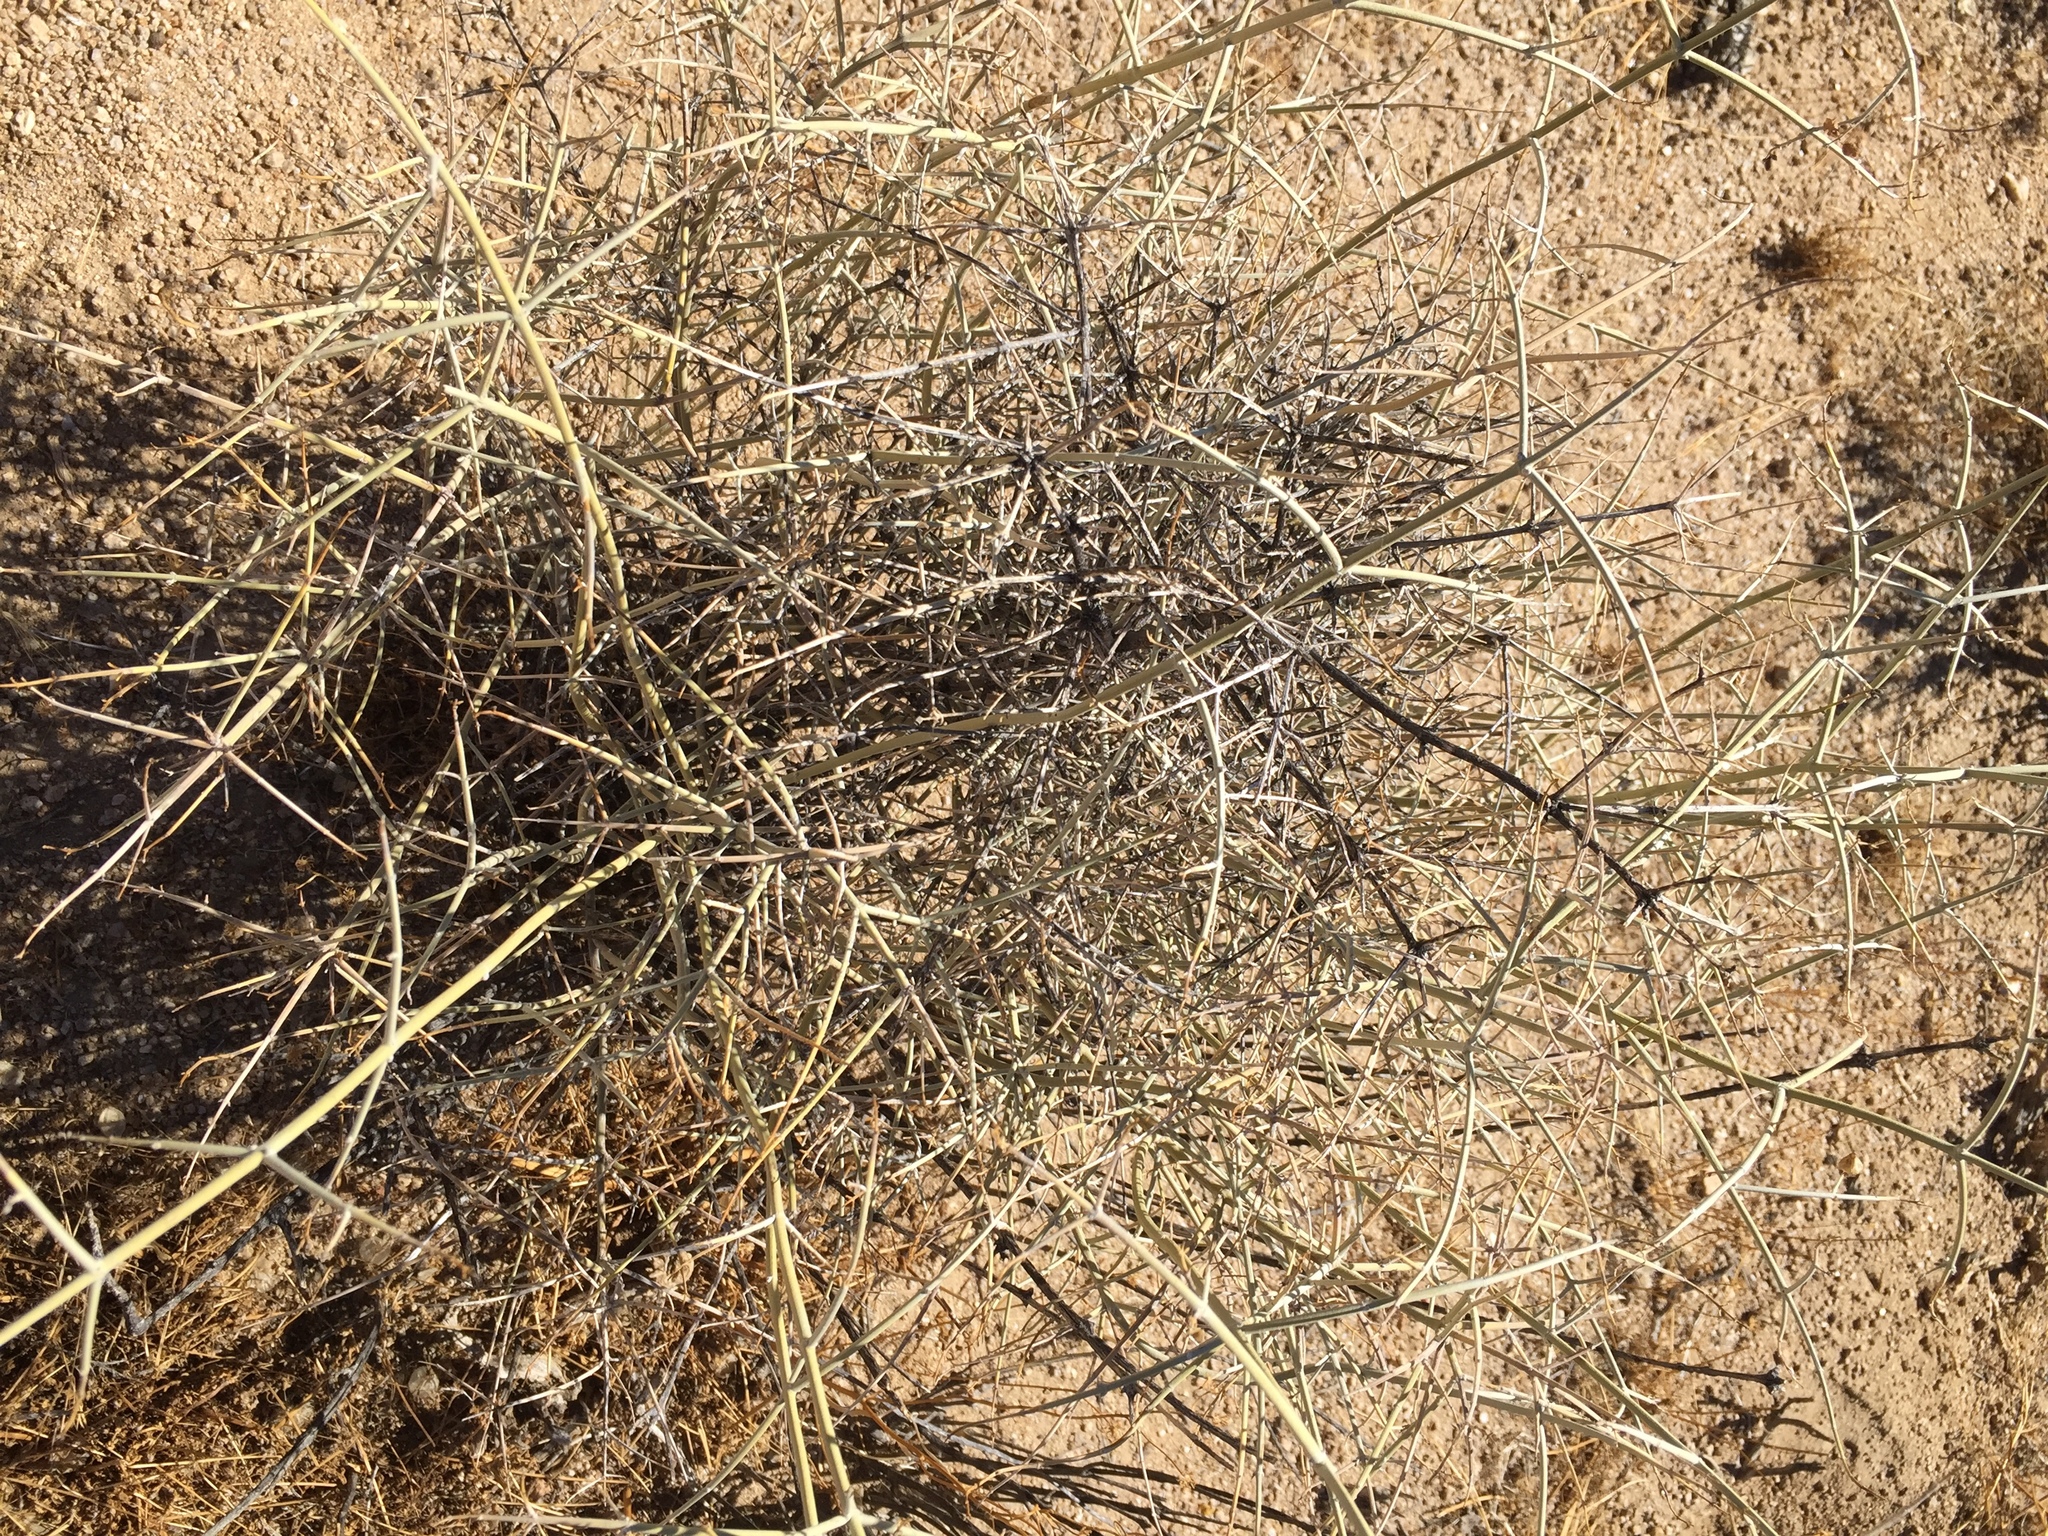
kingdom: Plantae
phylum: Tracheophyta
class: Magnoliopsida
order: Lamiales
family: Lamiaceae
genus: Scutellaria
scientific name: Scutellaria mexicana
